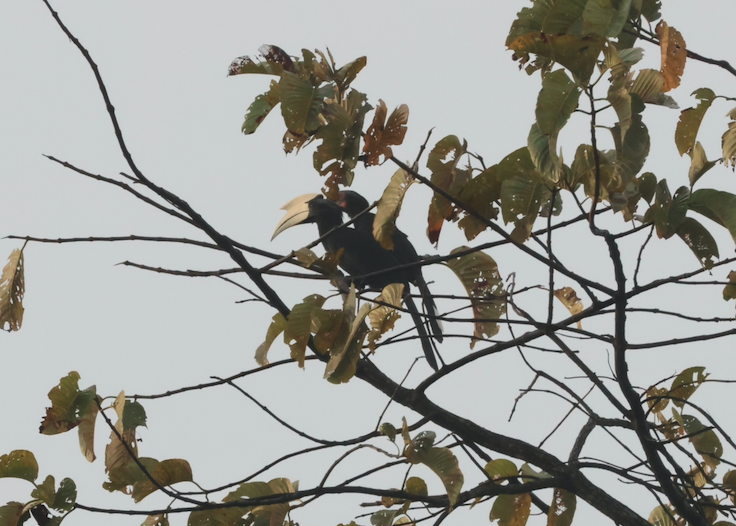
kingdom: Animalia
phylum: Chordata
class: Aves
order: Bucerotiformes
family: Bucerotidae
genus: Anthracoceros
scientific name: Anthracoceros malayanus
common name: Black hornbill
